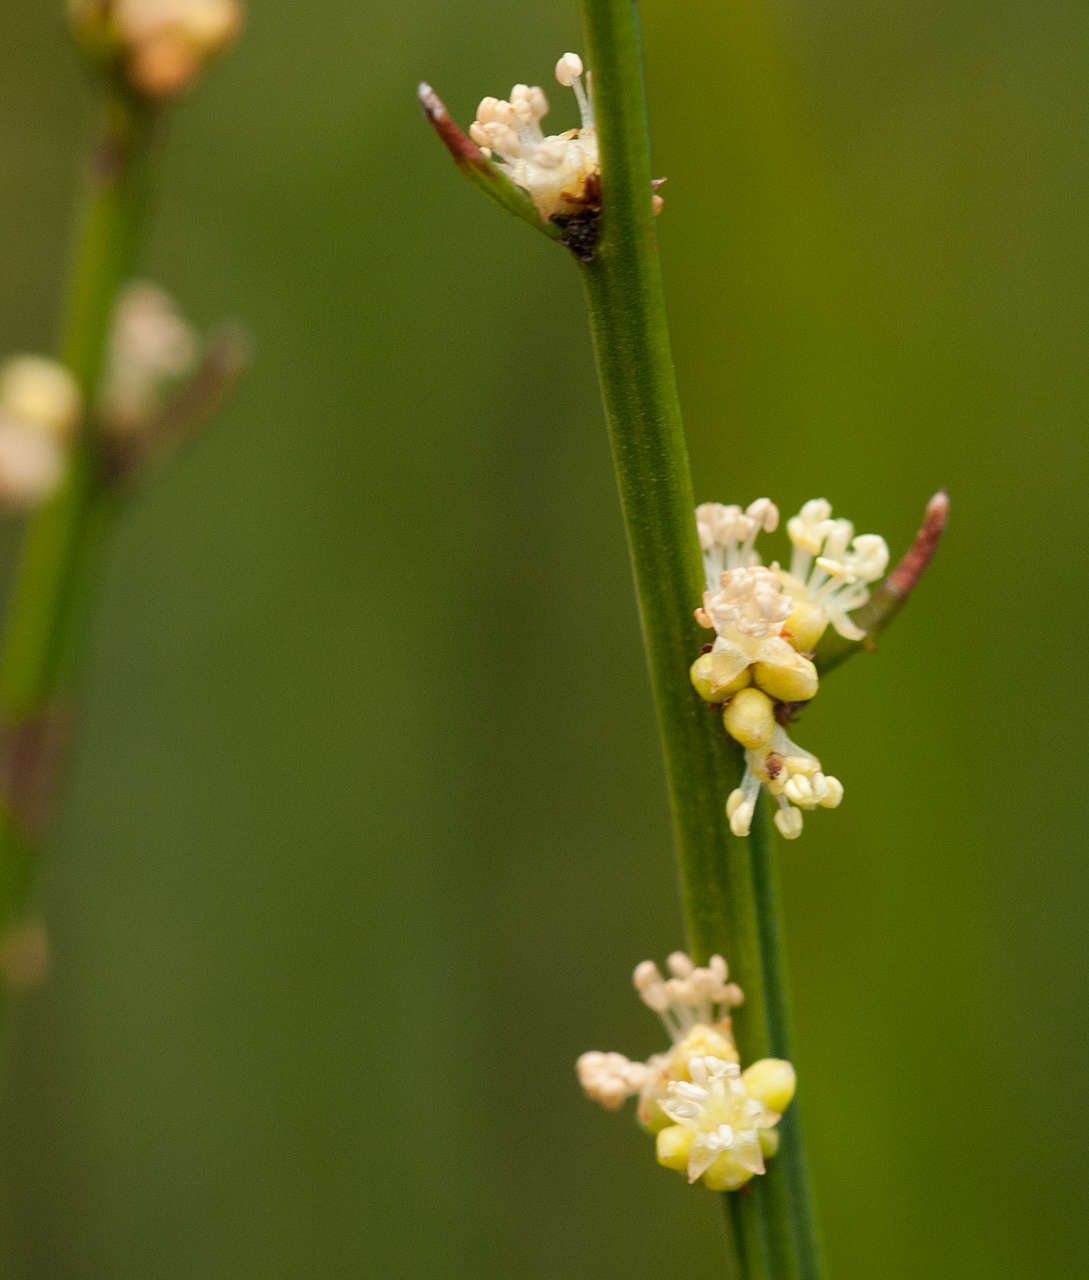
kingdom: Plantae
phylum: Tracheophyta
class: Magnoliopsida
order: Malpighiales
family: Euphorbiaceae
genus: Amperea
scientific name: Amperea xiphoclada
